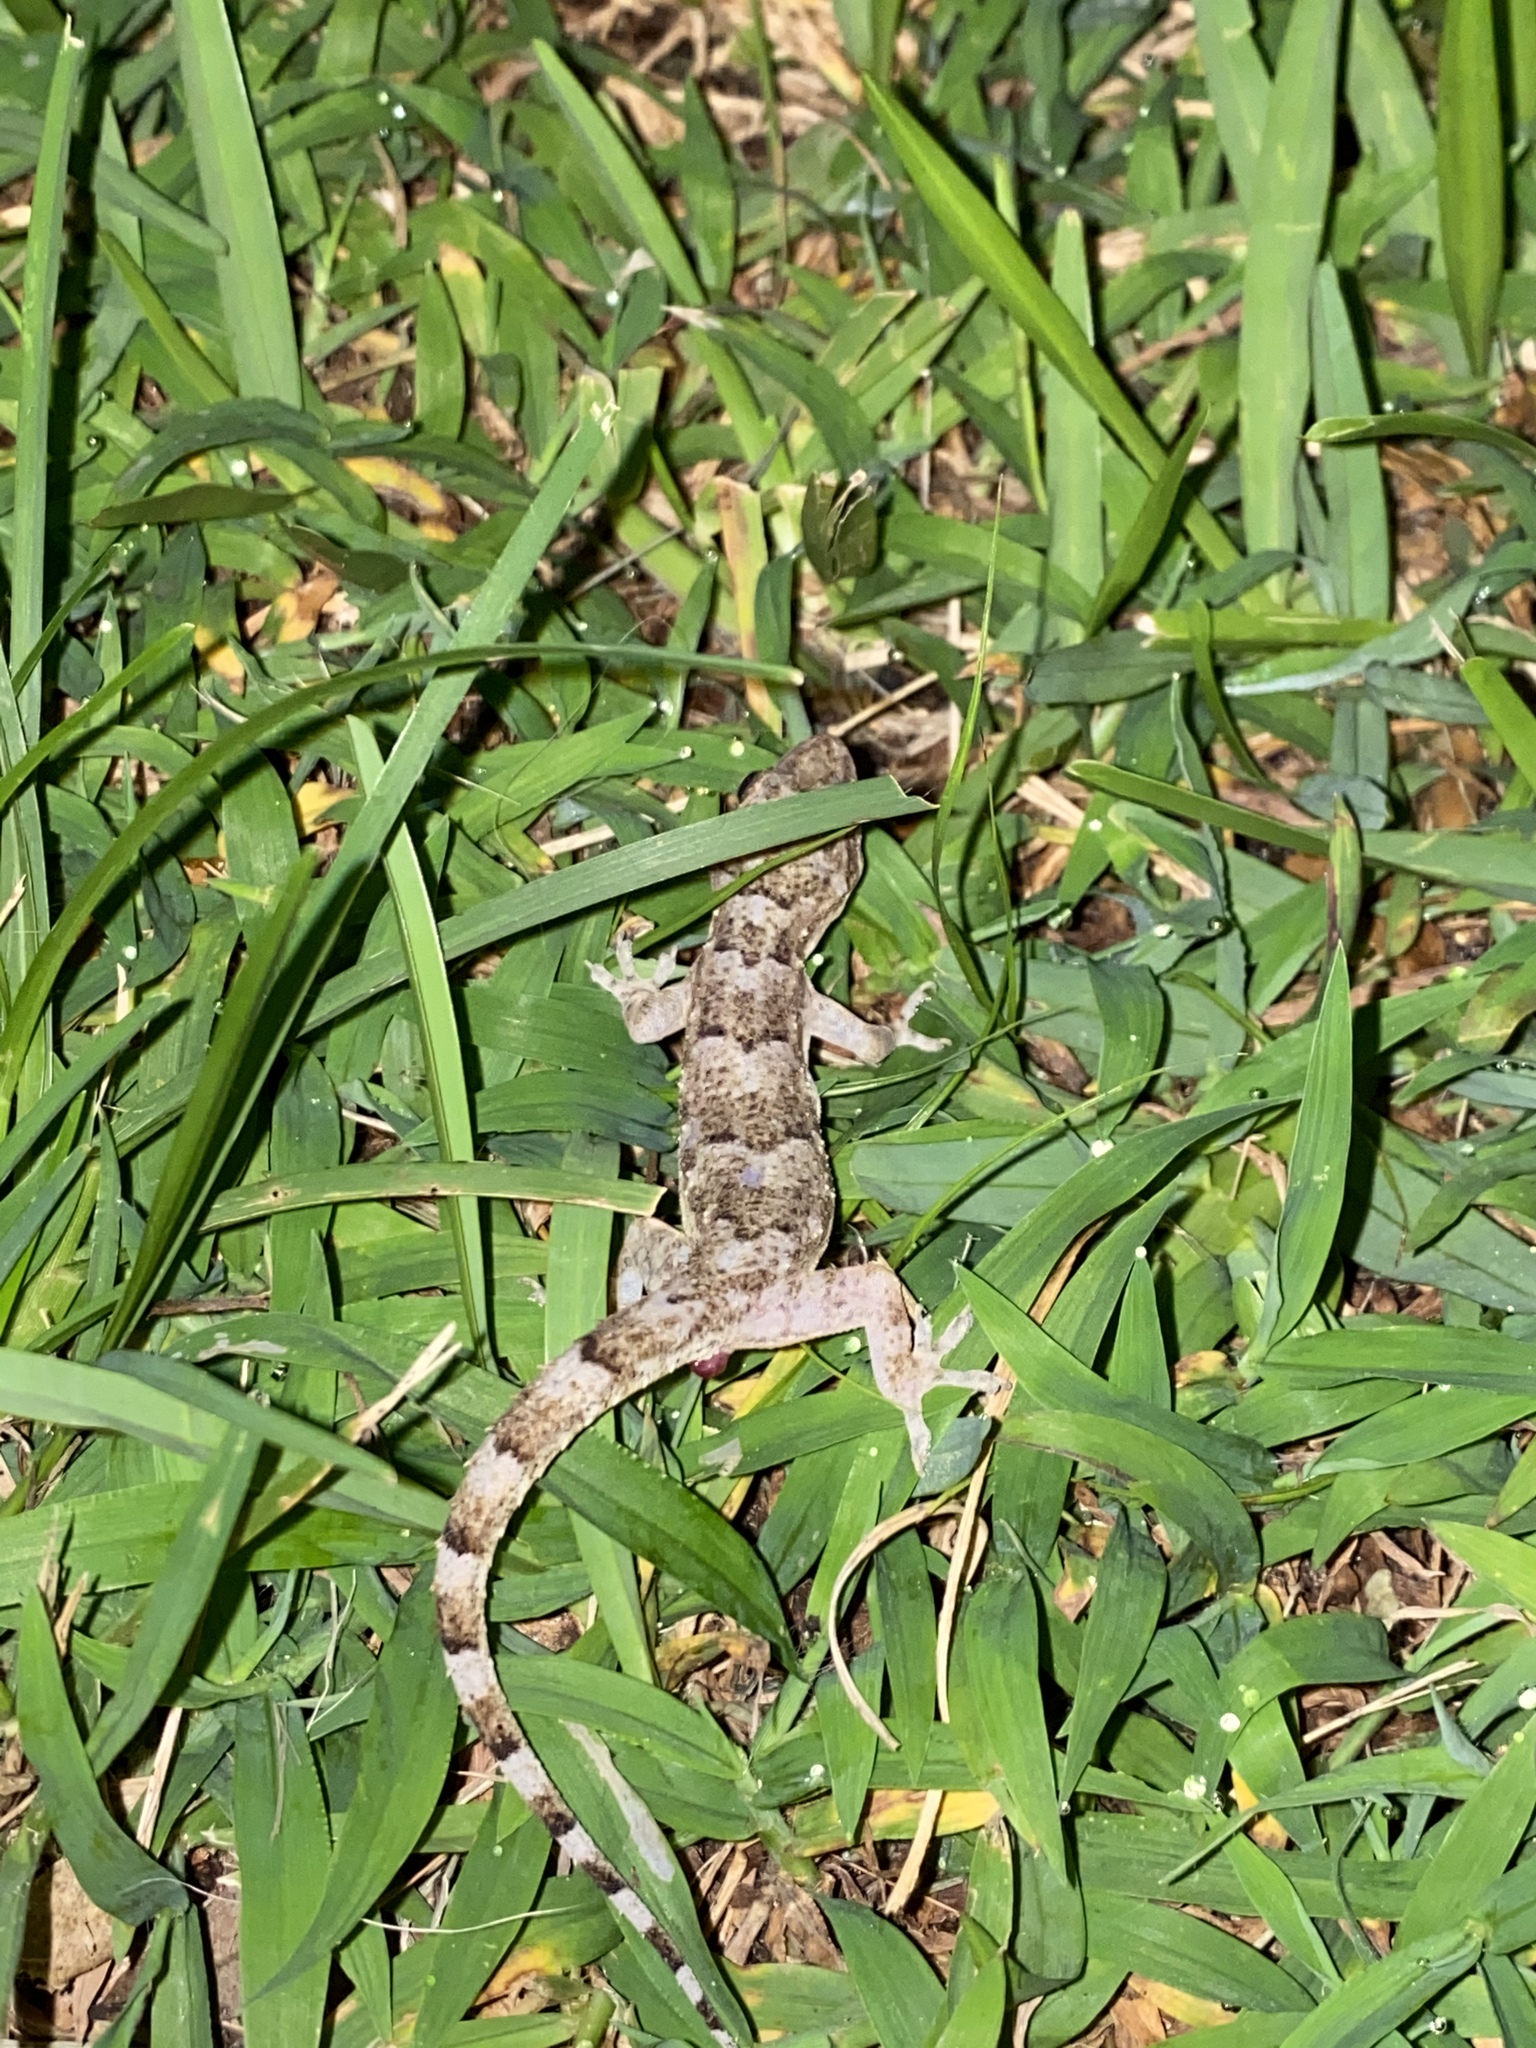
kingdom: Animalia
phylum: Chordata
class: Squamata
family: Gekkonidae
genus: Hemidactylus
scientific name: Hemidactylus mabouia
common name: House gecko
